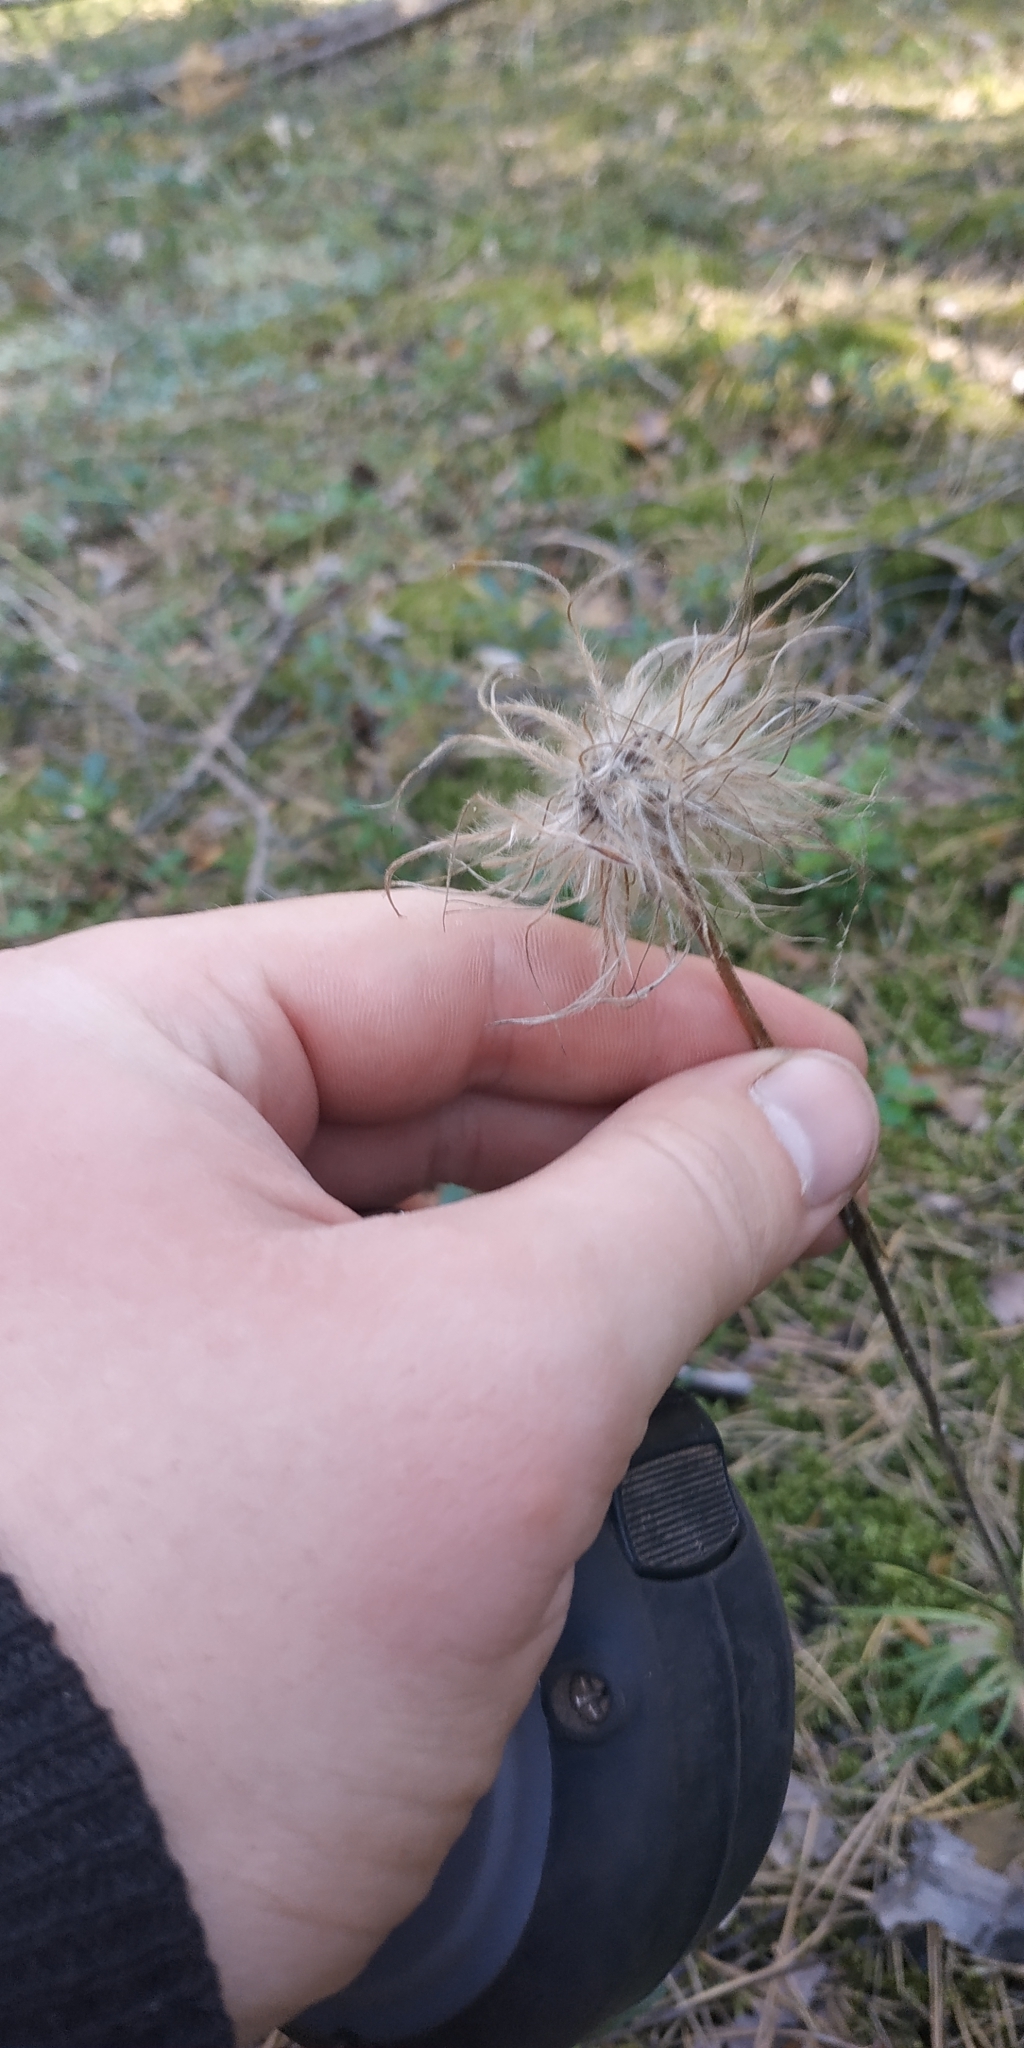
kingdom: Plantae
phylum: Tracheophyta
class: Magnoliopsida
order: Ranunculales
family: Ranunculaceae
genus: Pulsatilla
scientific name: Pulsatilla patens
